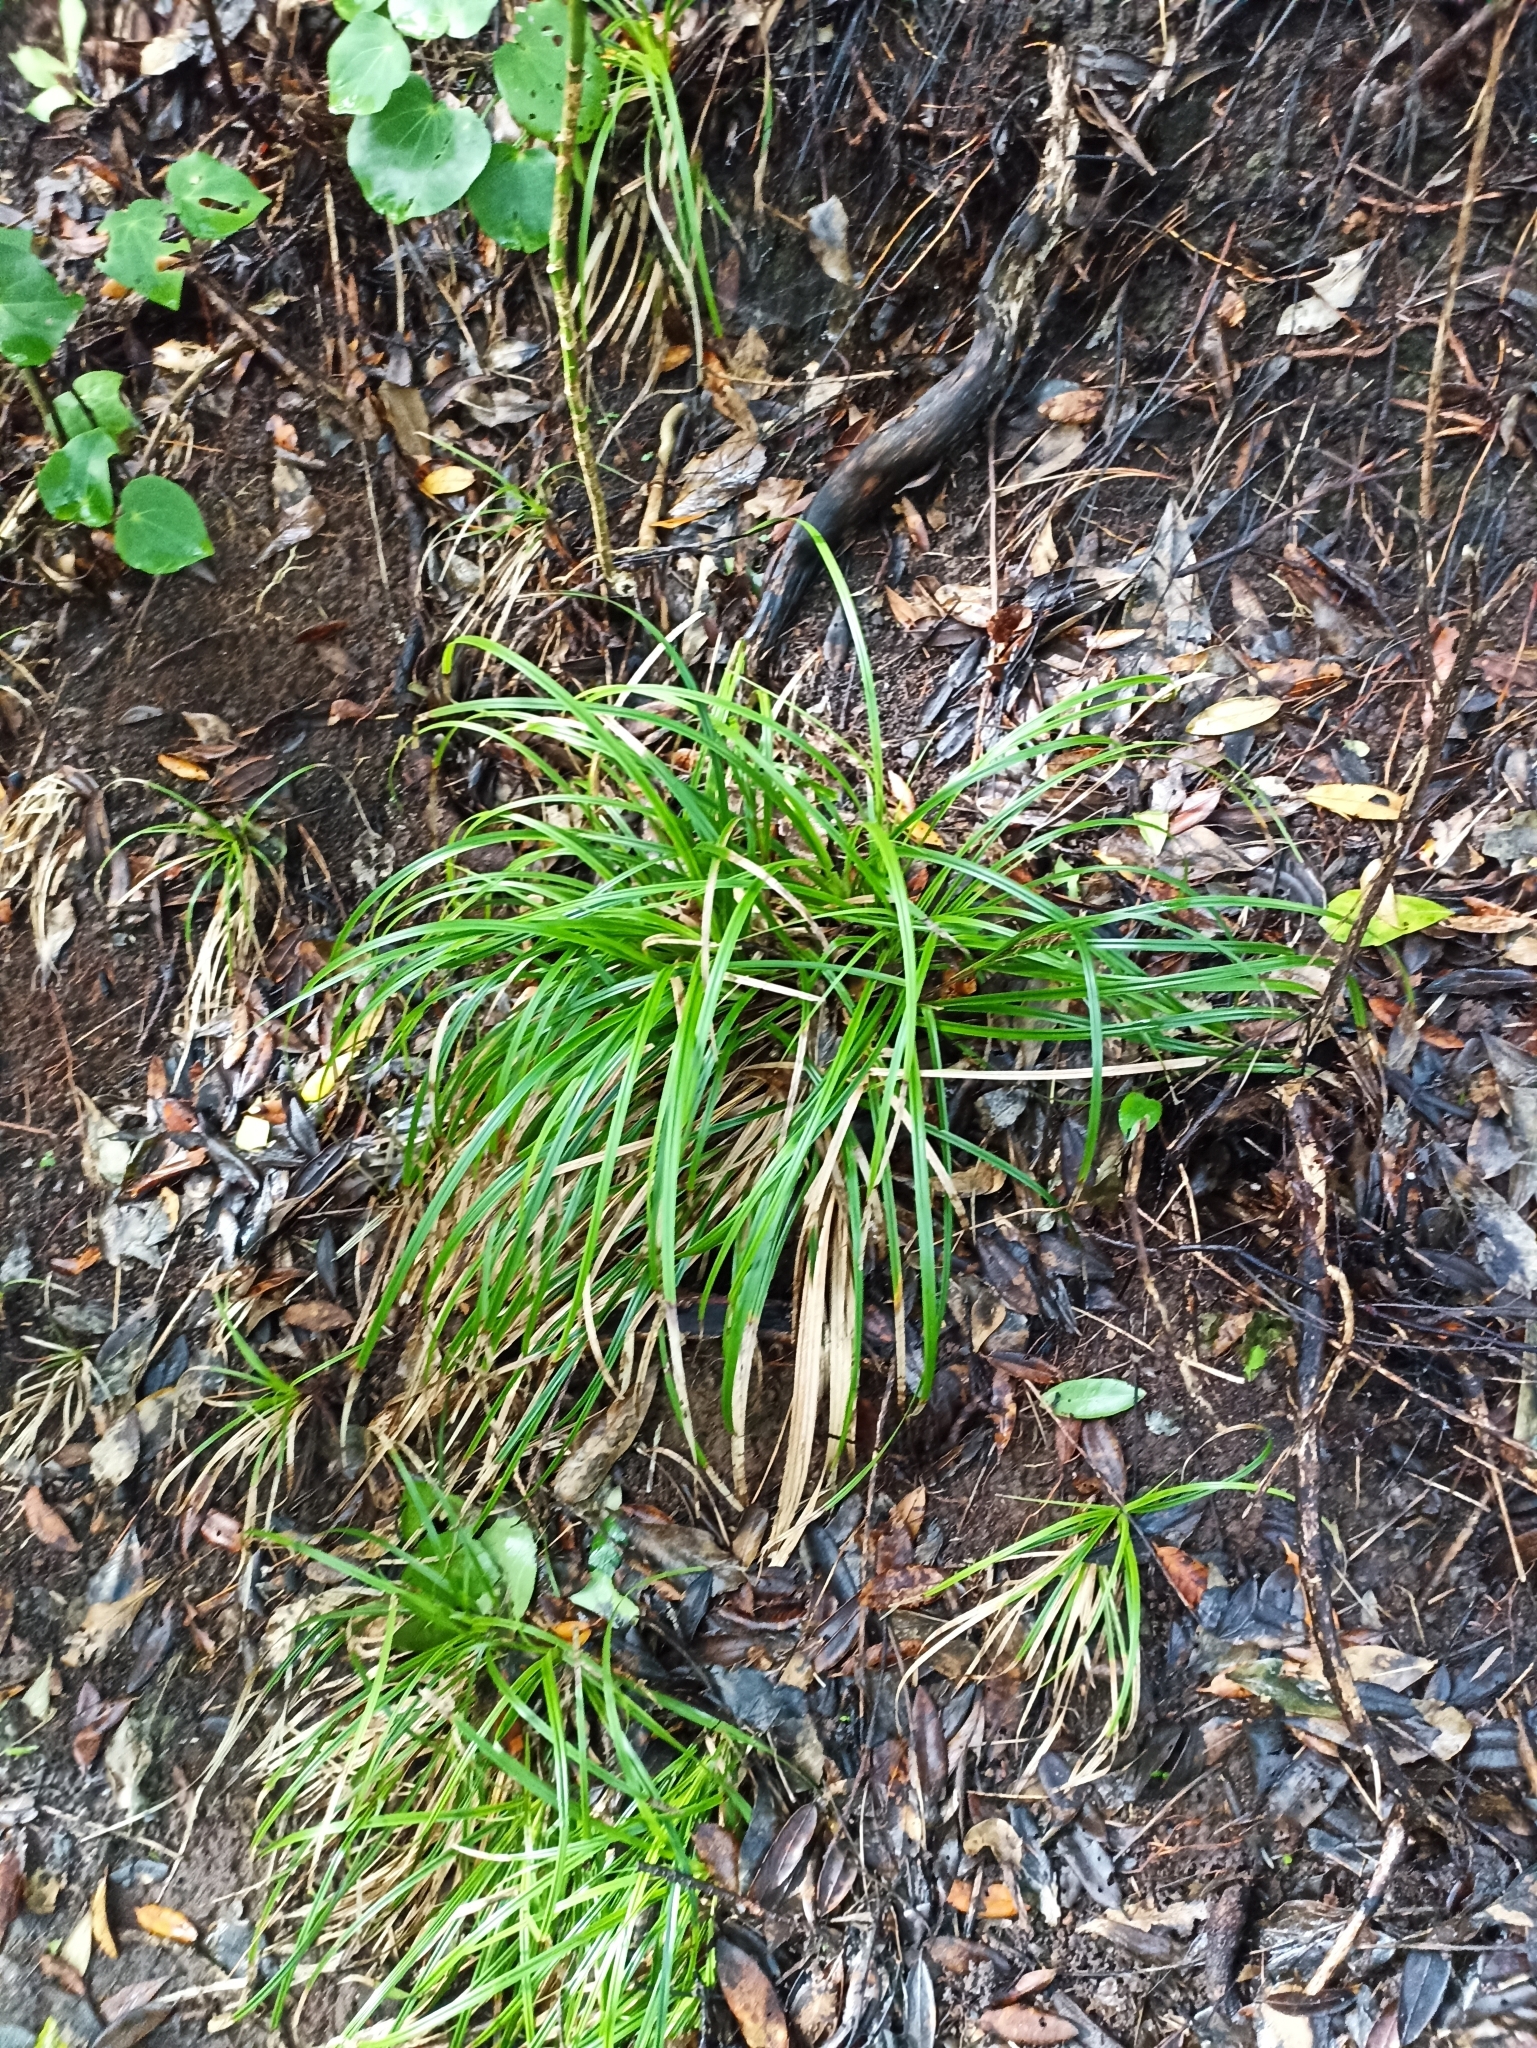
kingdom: Plantae
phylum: Tracheophyta
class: Liliopsida
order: Poales
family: Cyperaceae
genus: Carex
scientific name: Carex uncinata
